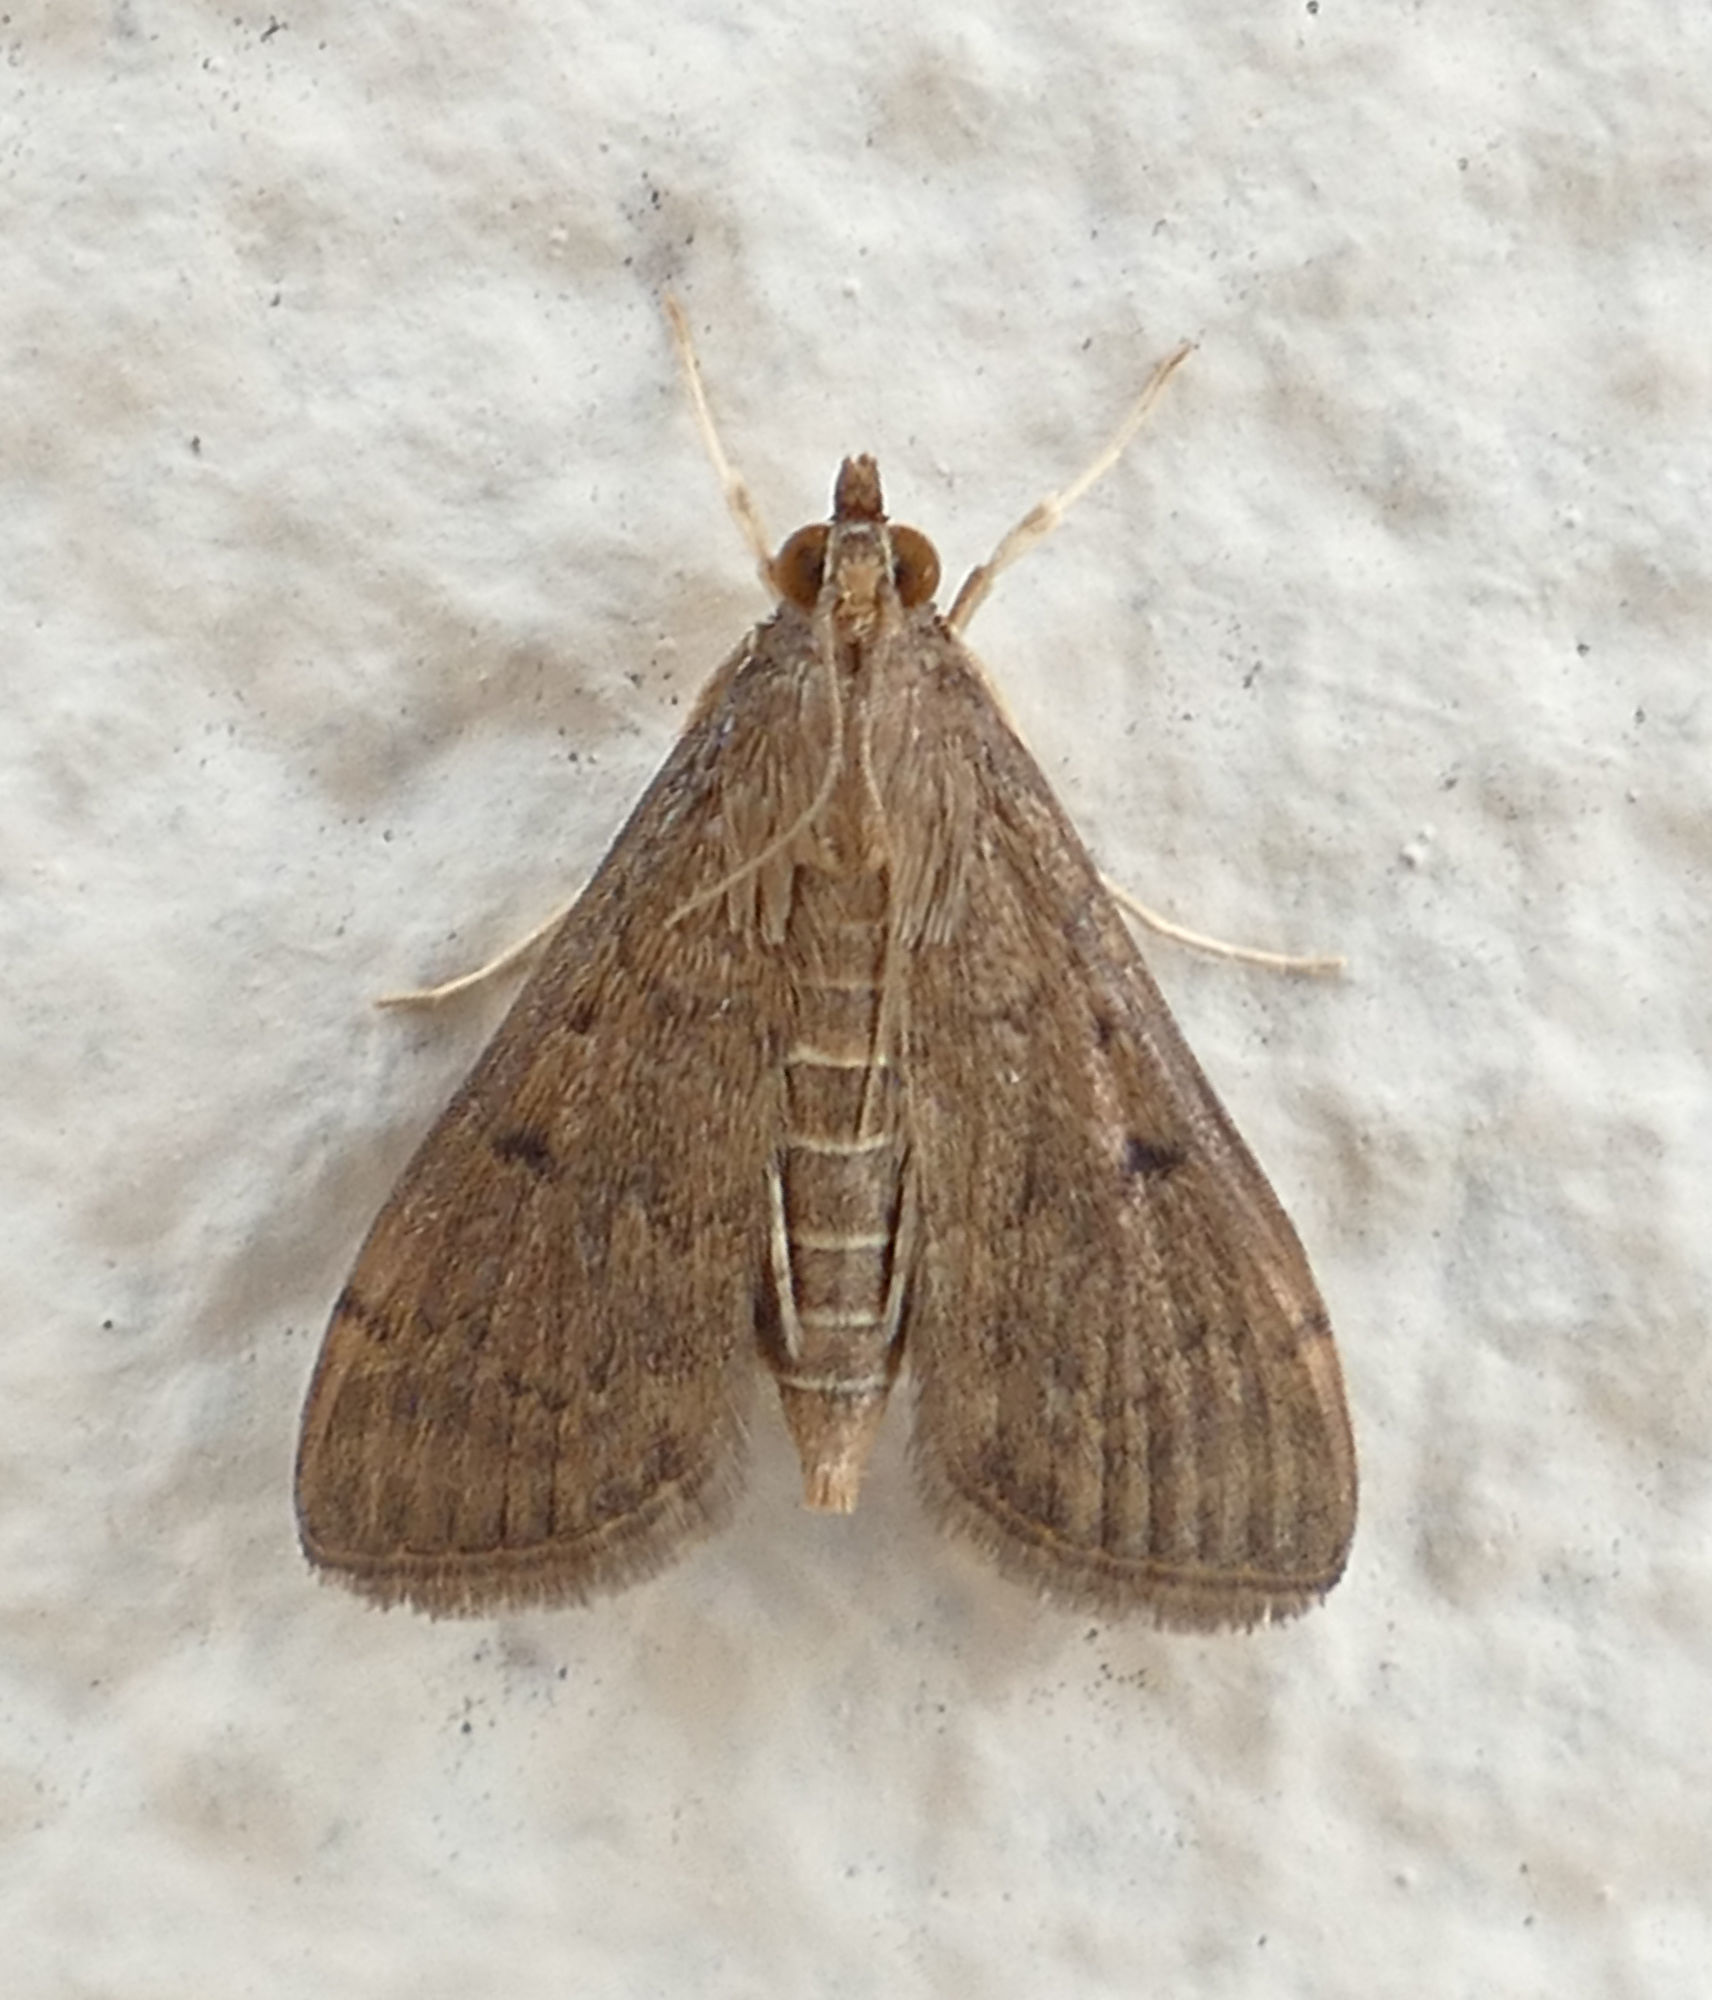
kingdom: Animalia
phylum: Arthropoda
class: Insecta
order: Lepidoptera
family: Crambidae
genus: Herpetogramma
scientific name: Herpetogramma phaeopteralis
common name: Dusky herpetogramma moth
